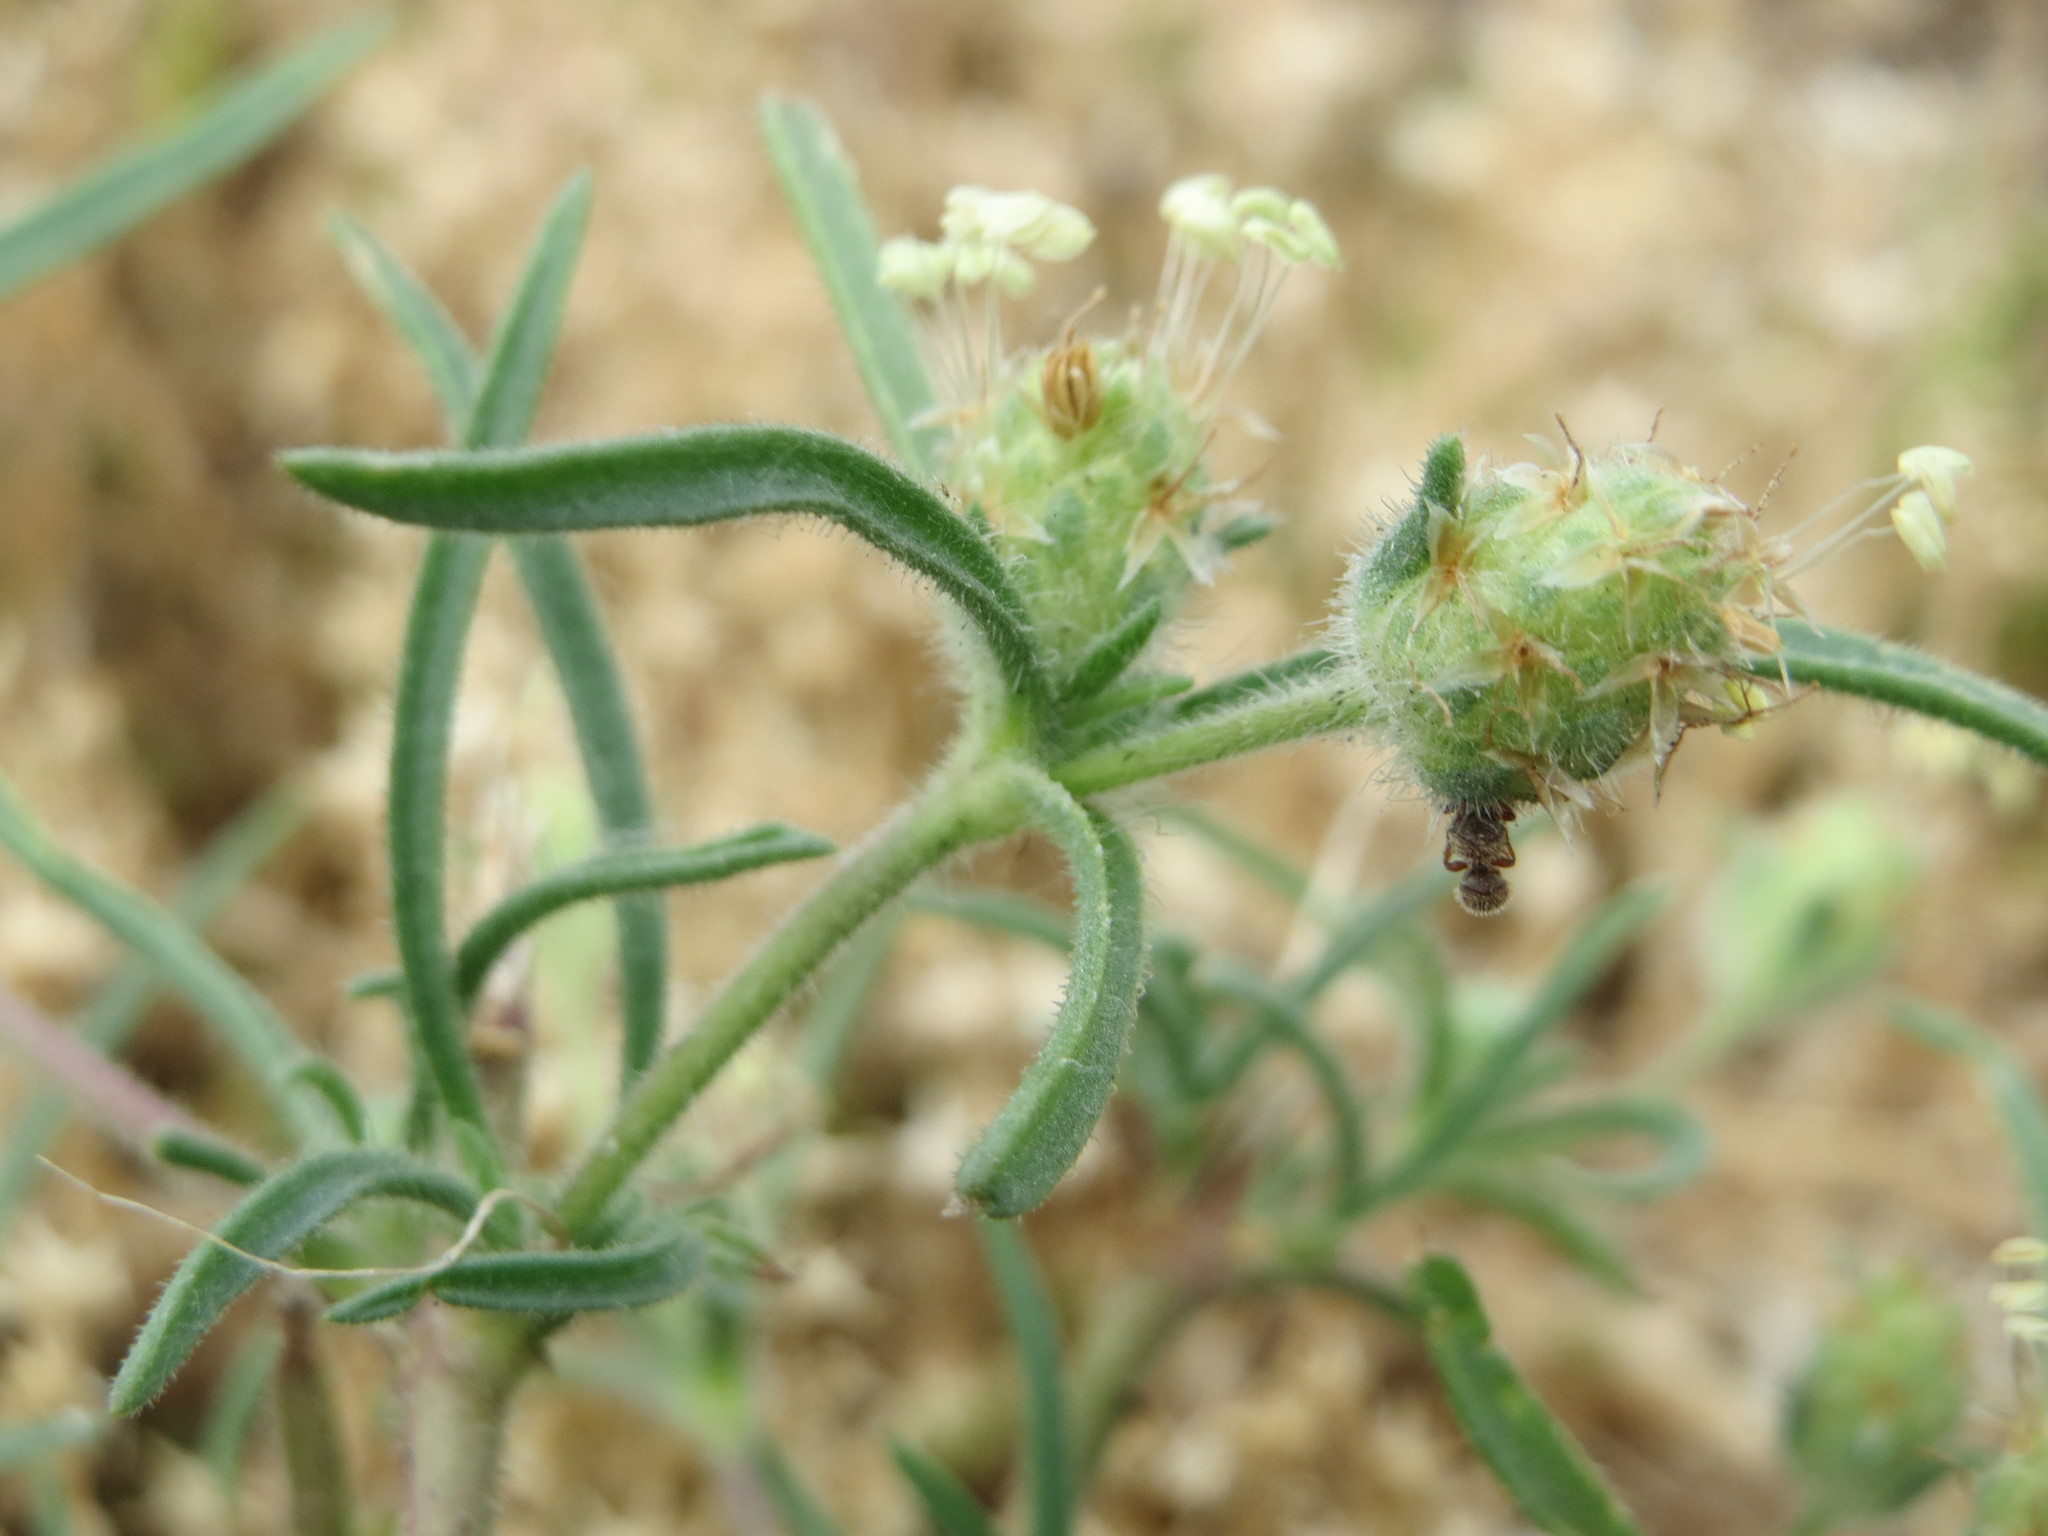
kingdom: Plantae
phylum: Tracheophyta
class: Magnoliopsida
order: Lamiales
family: Plantaginaceae
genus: Plantago
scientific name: Plantago arenaria
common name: Branched plantain
